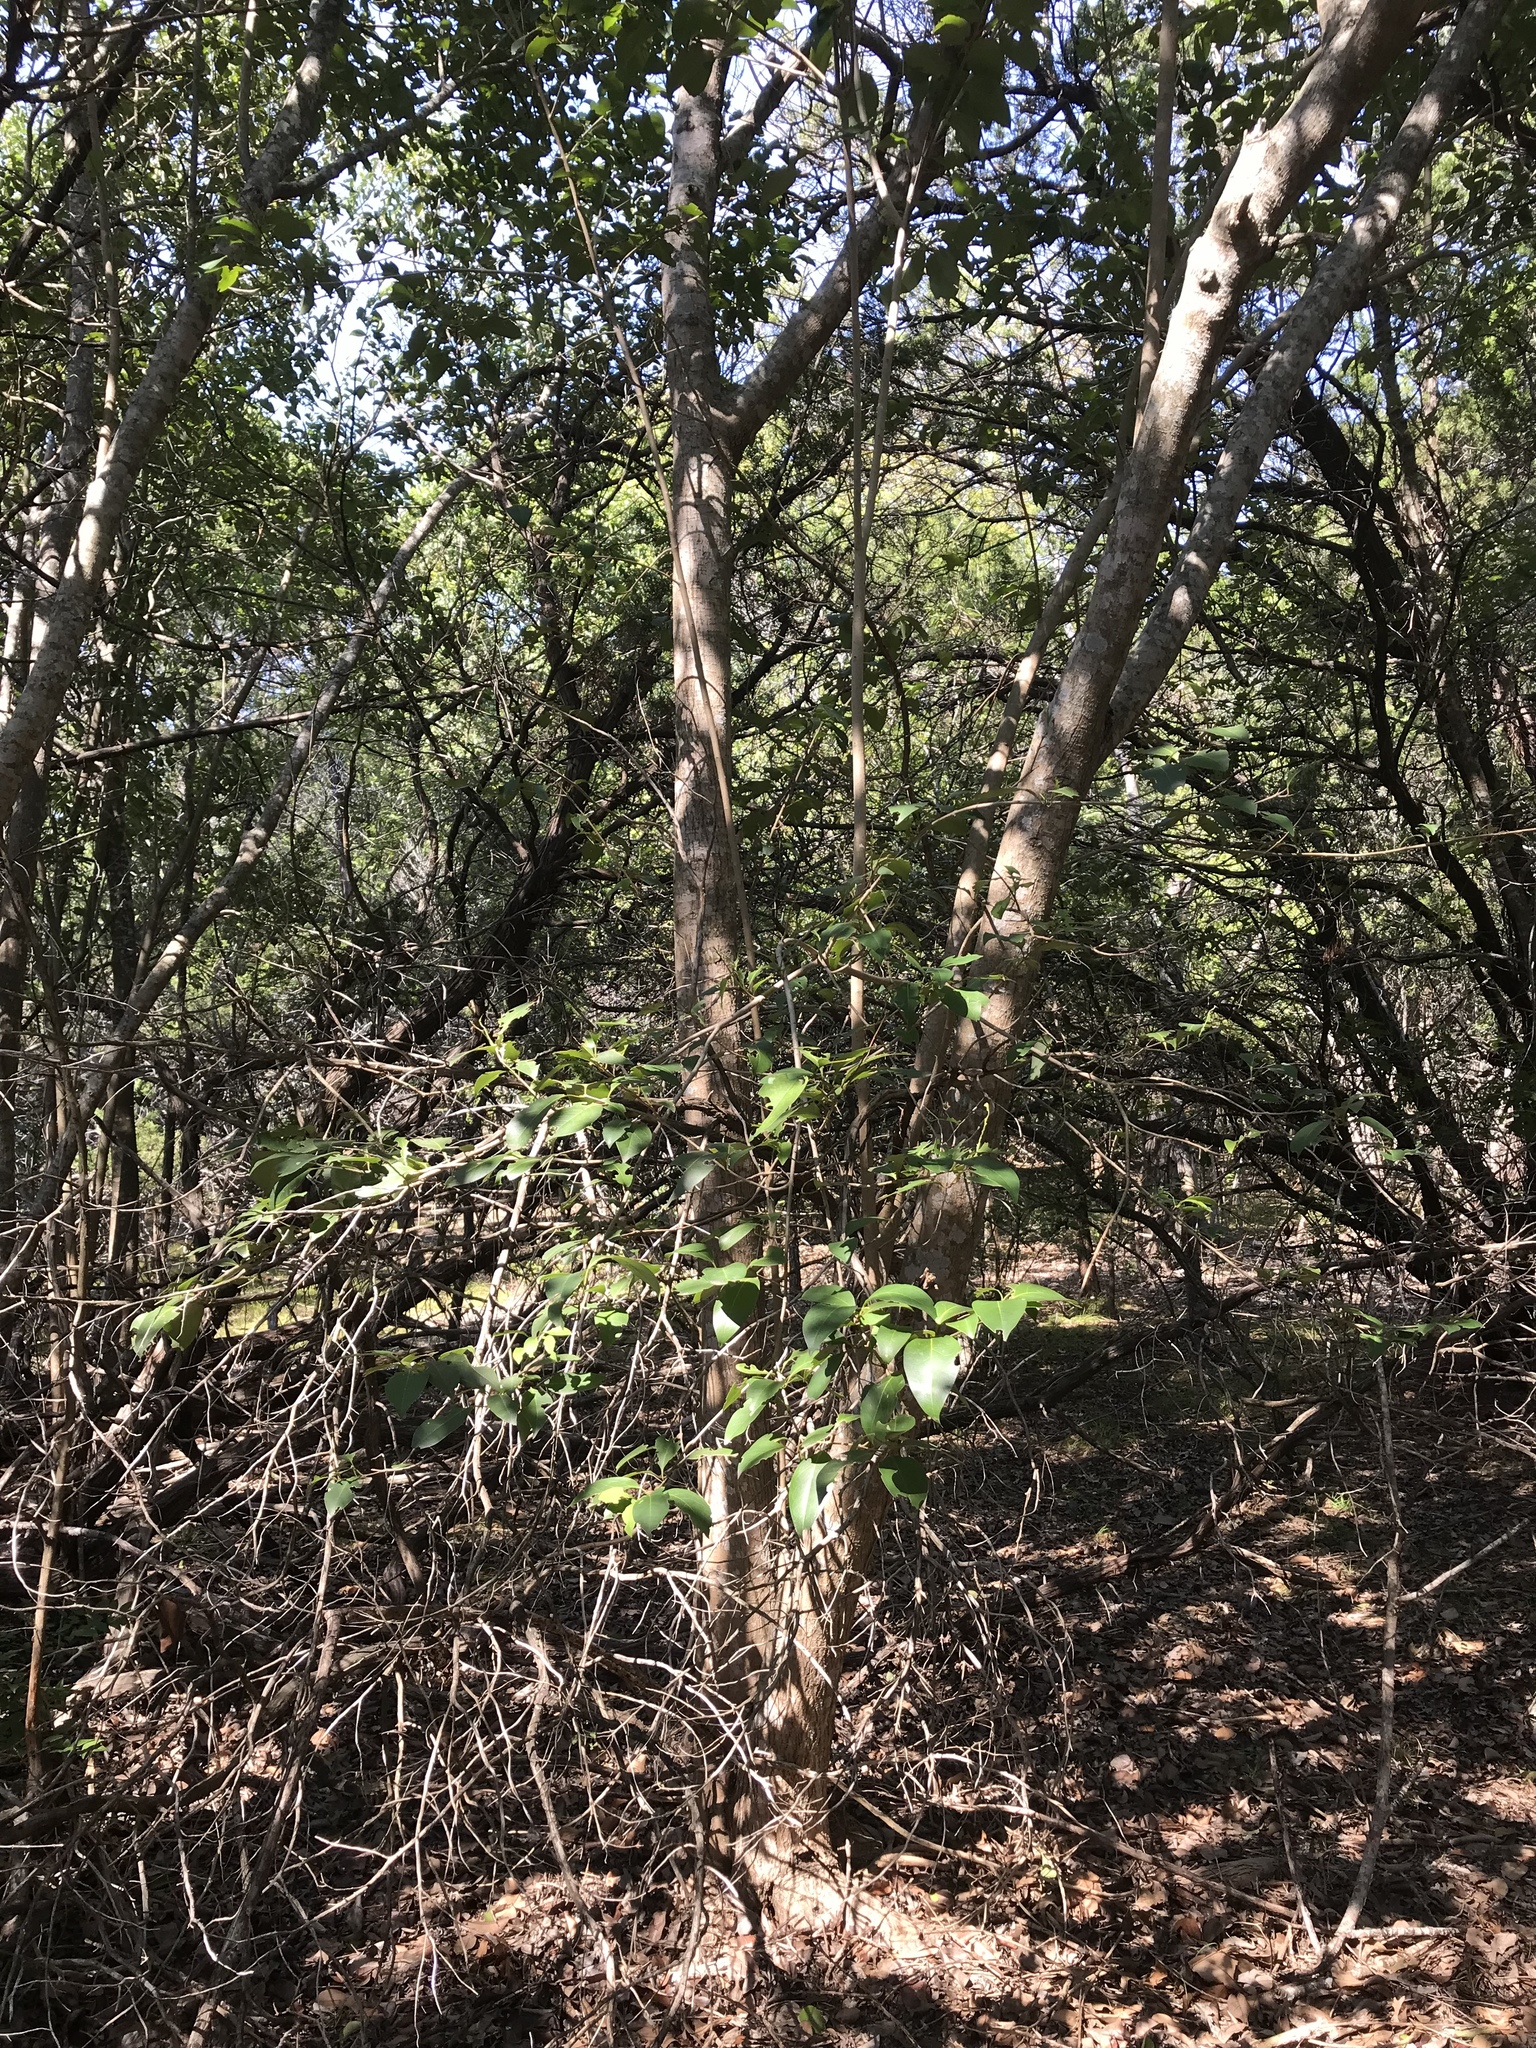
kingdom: Plantae
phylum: Tracheophyta
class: Magnoliopsida
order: Lamiales
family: Oleaceae
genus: Ligustrum
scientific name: Ligustrum lucidum
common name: Glossy privet
